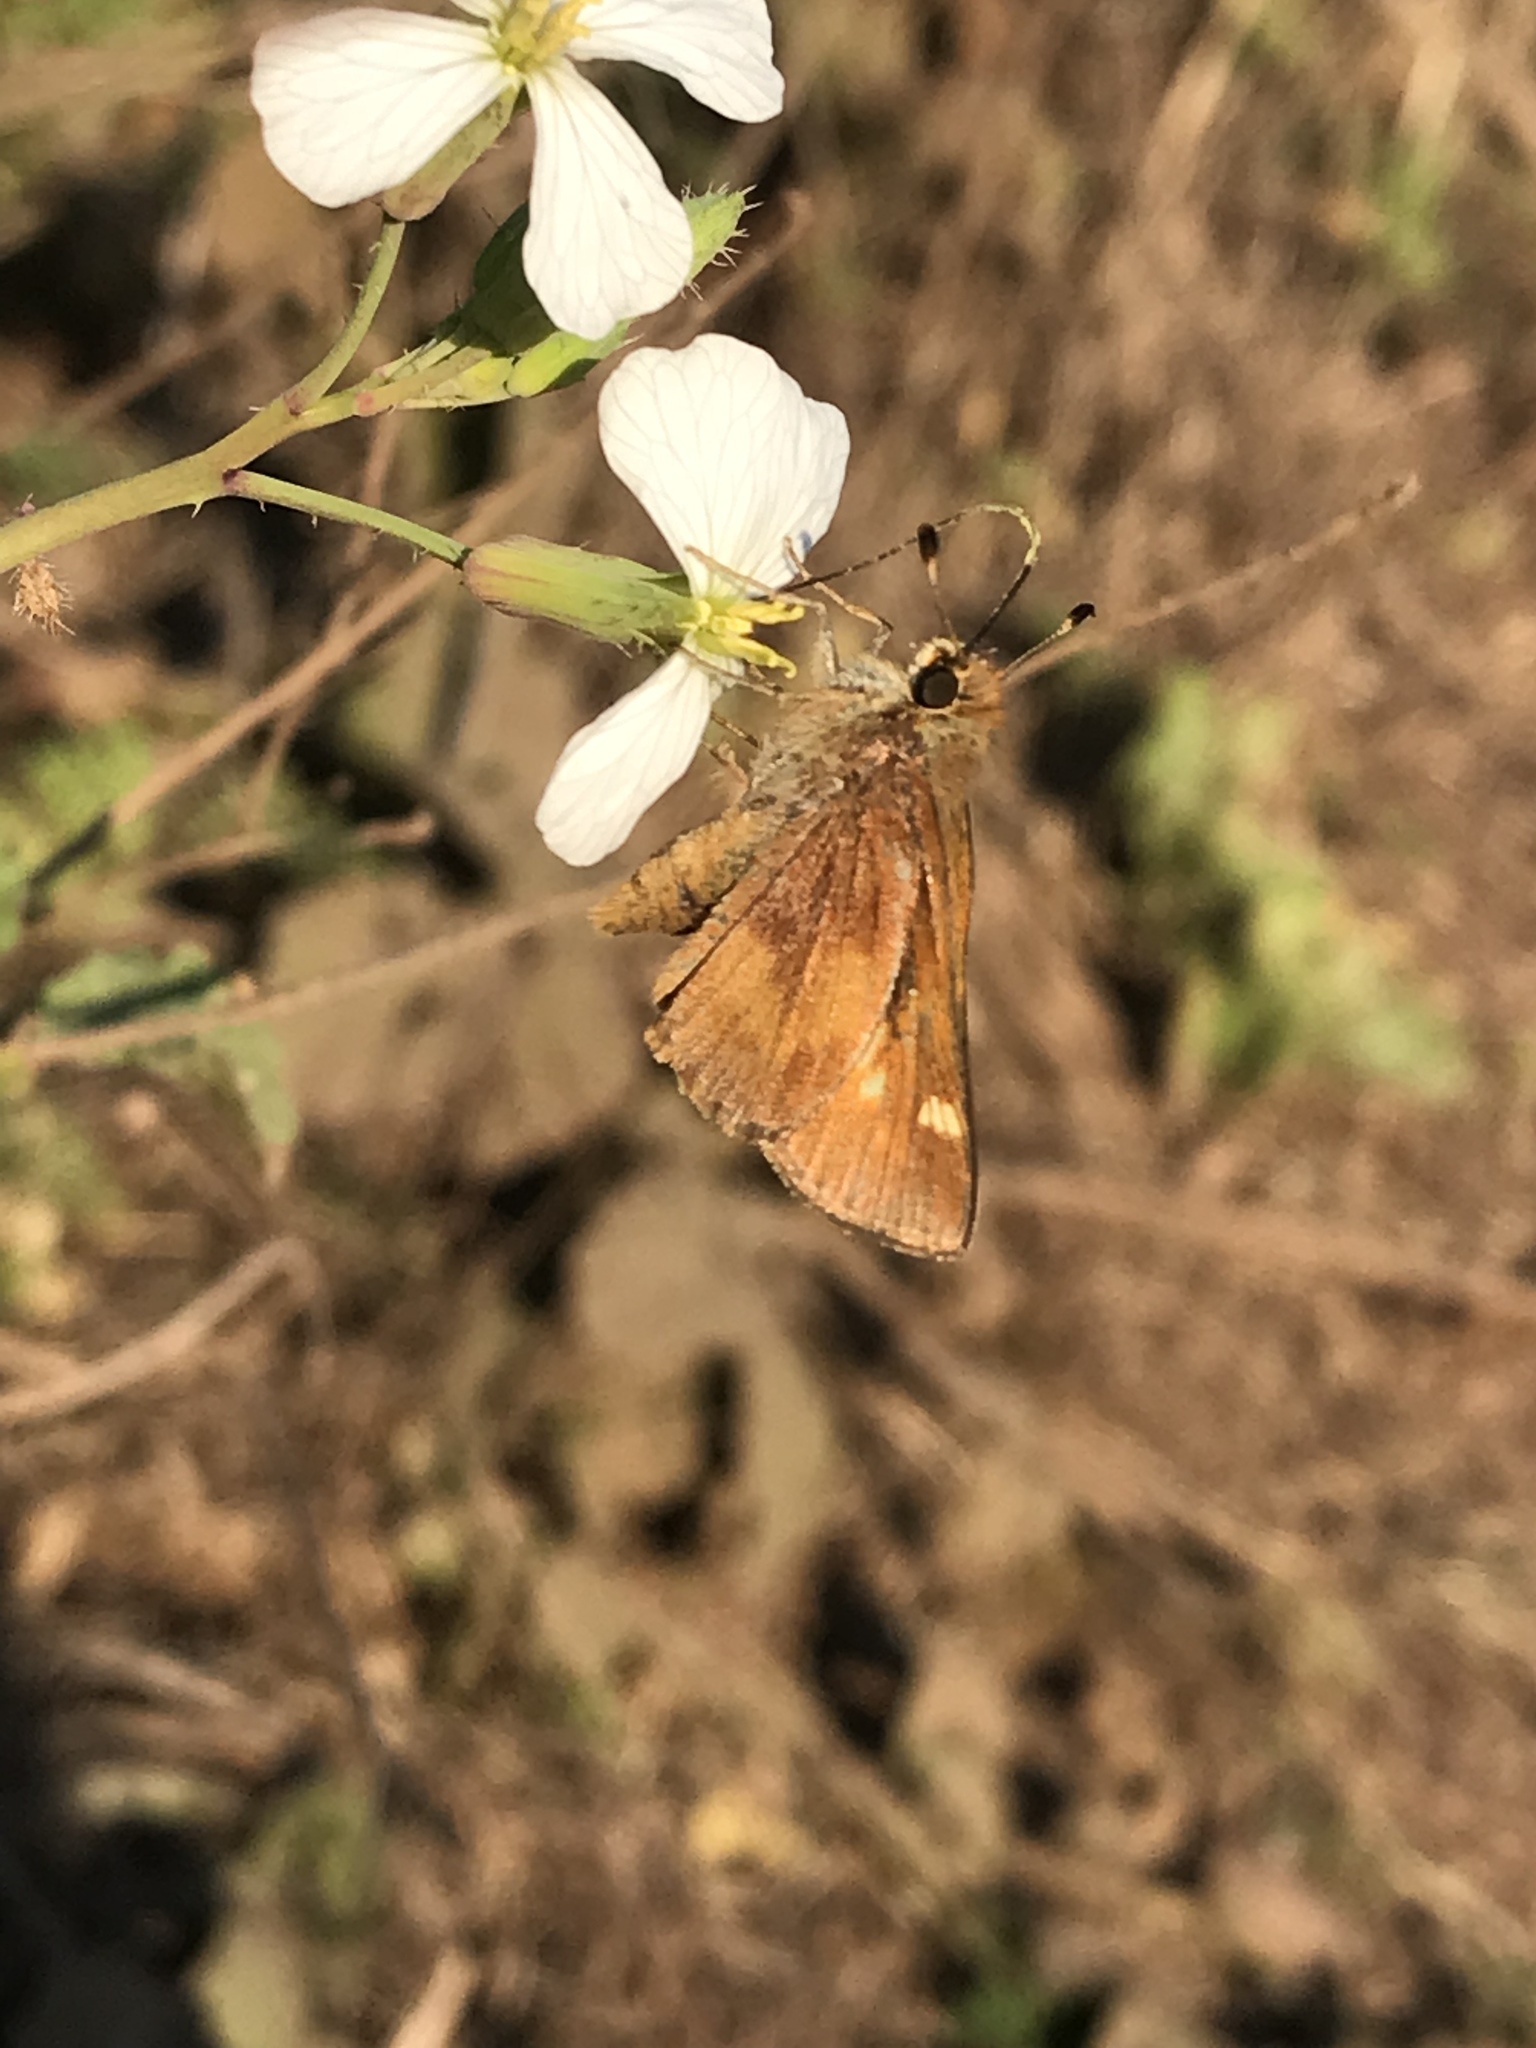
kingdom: Animalia
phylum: Arthropoda
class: Insecta
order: Lepidoptera
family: Hesperiidae
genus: Lon
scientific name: Lon melane
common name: Umber skipper
